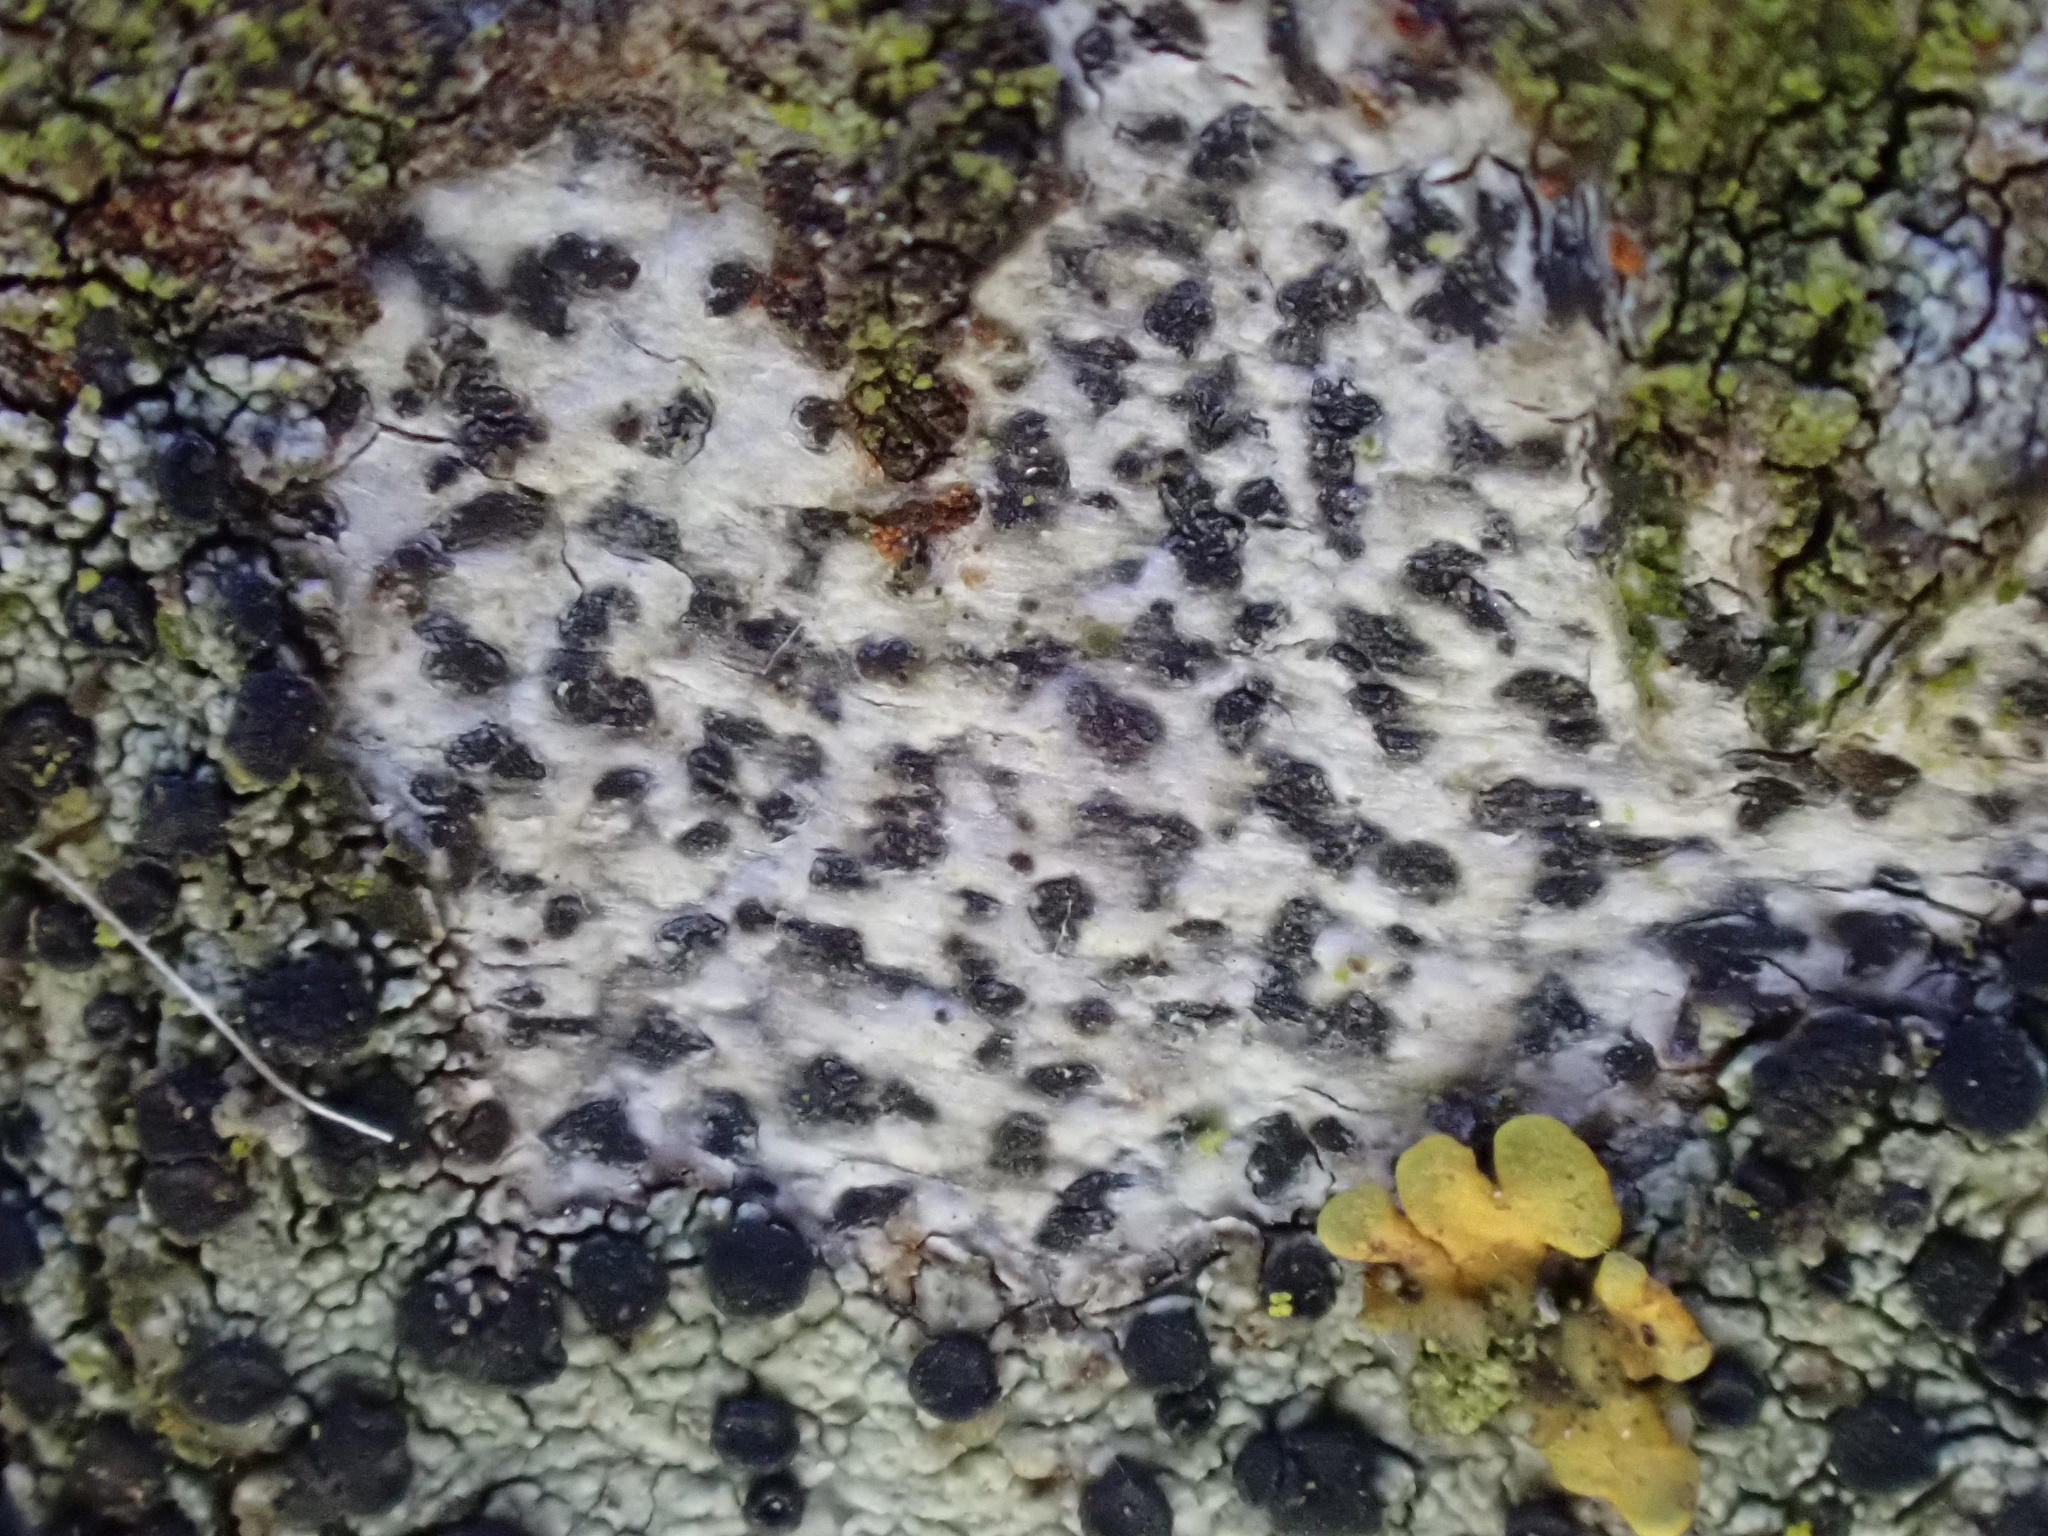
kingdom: Fungi
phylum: Ascomycota
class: Arthoniomycetes
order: Arthoniales
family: Arthoniaceae
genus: Arthonia
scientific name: Arthonia radiata
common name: Asterisk lichen
